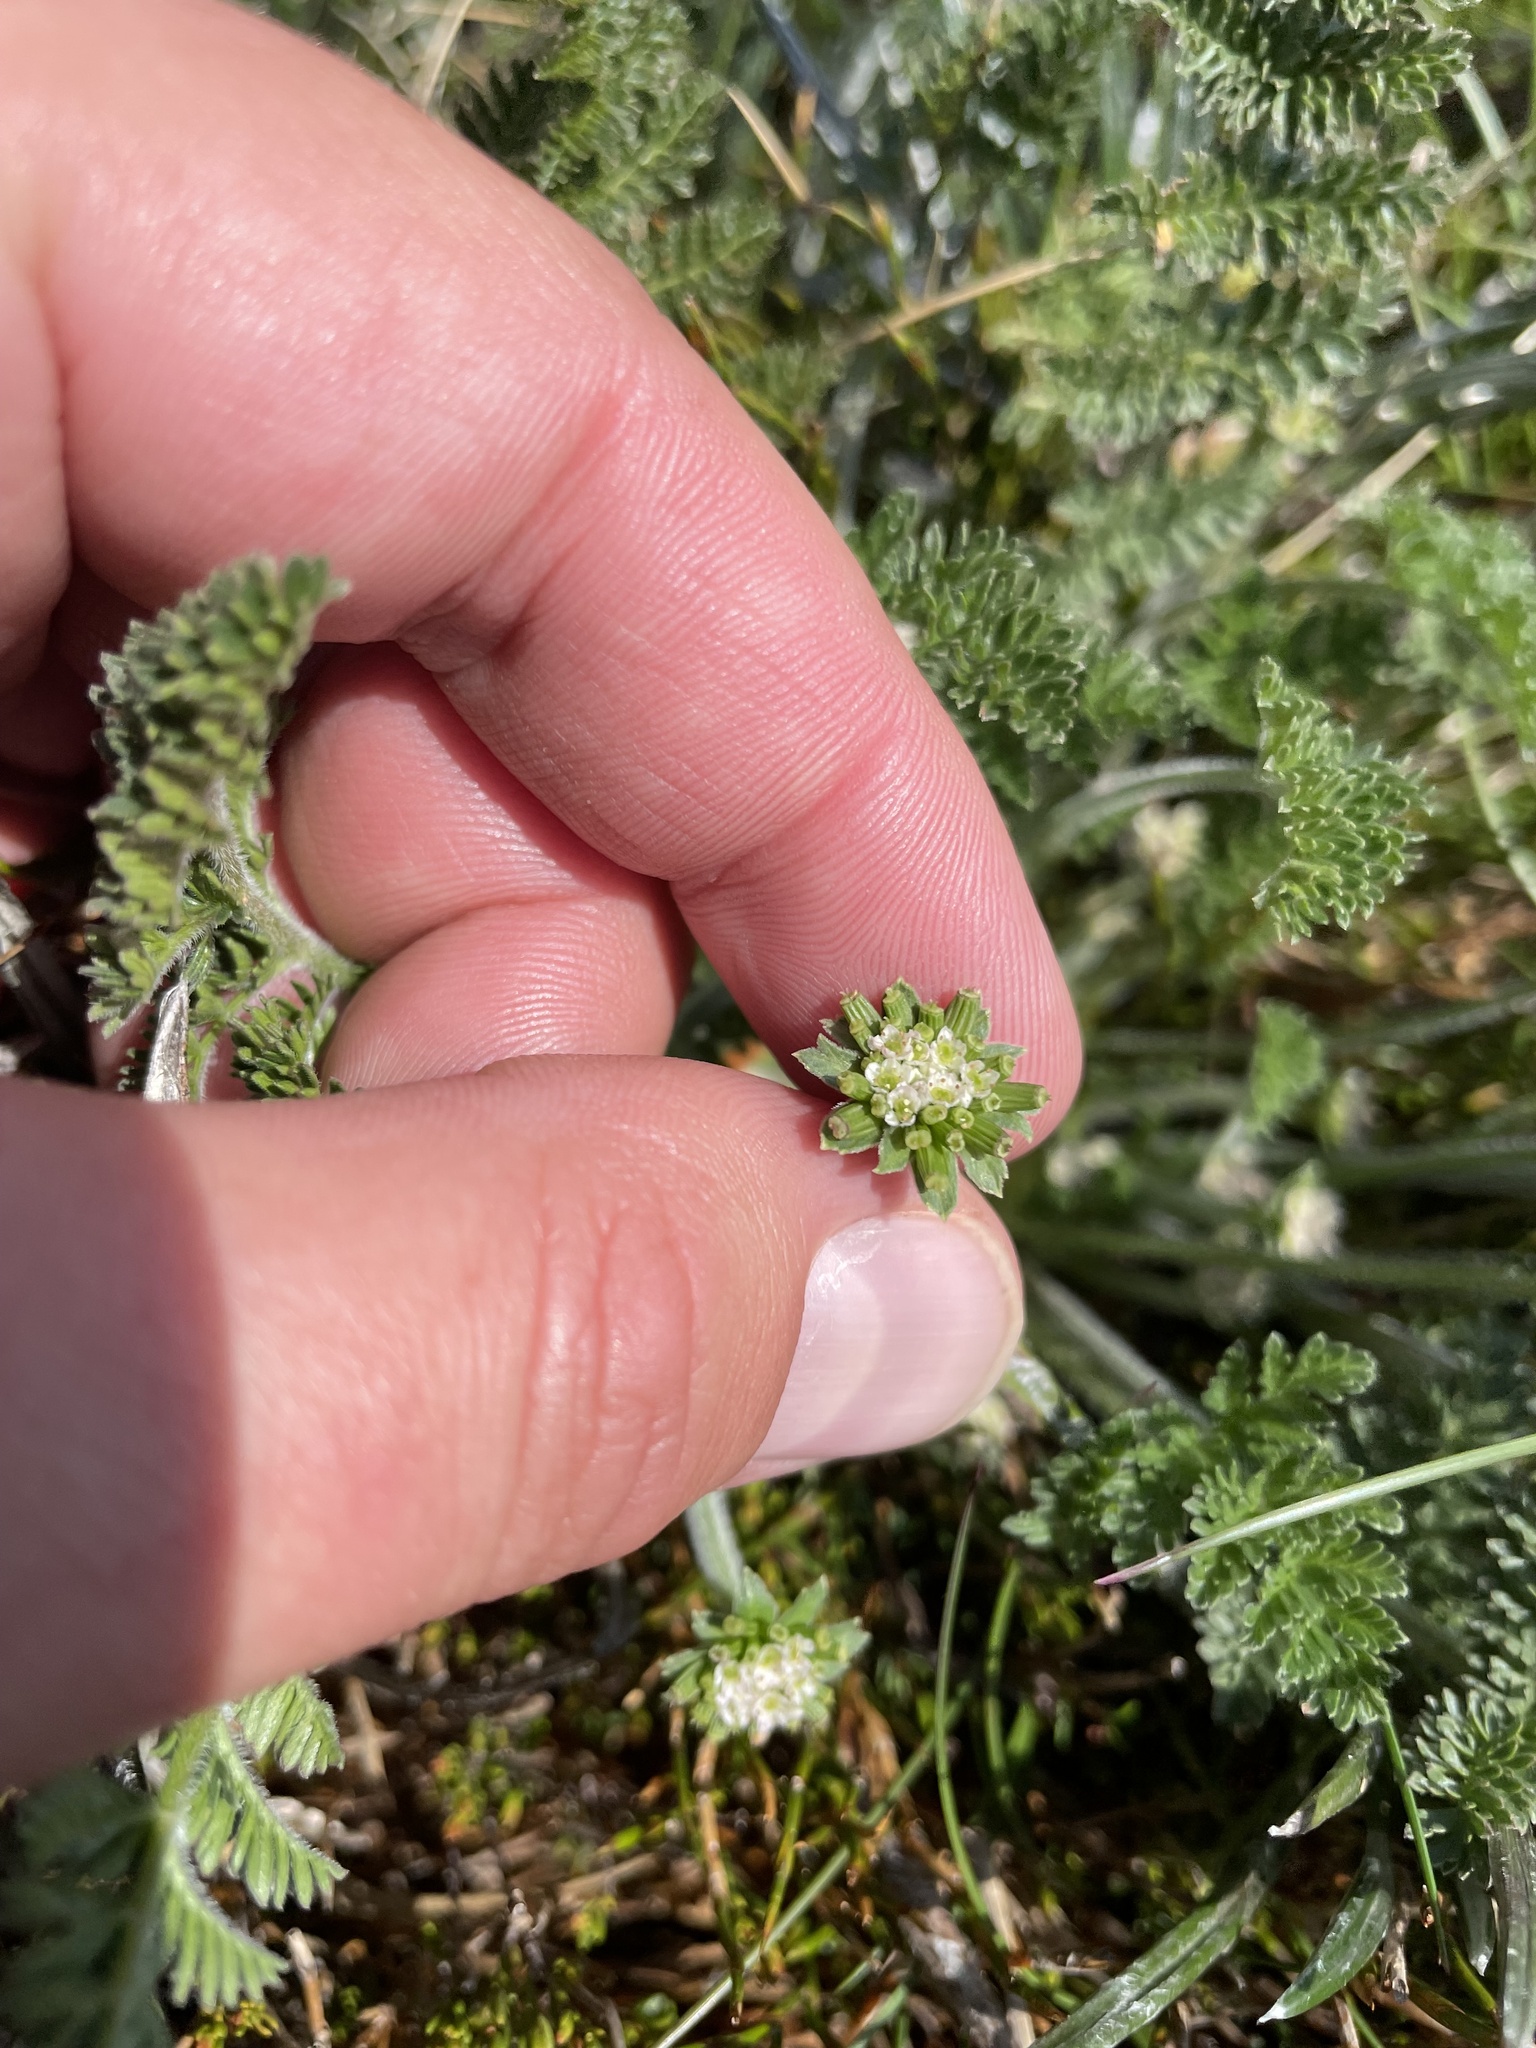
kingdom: Plantae
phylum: Tracheophyta
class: Magnoliopsida
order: Apiales
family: Apiaceae
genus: Chaerophyllum
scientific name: Chaerophyllum eriopodum
